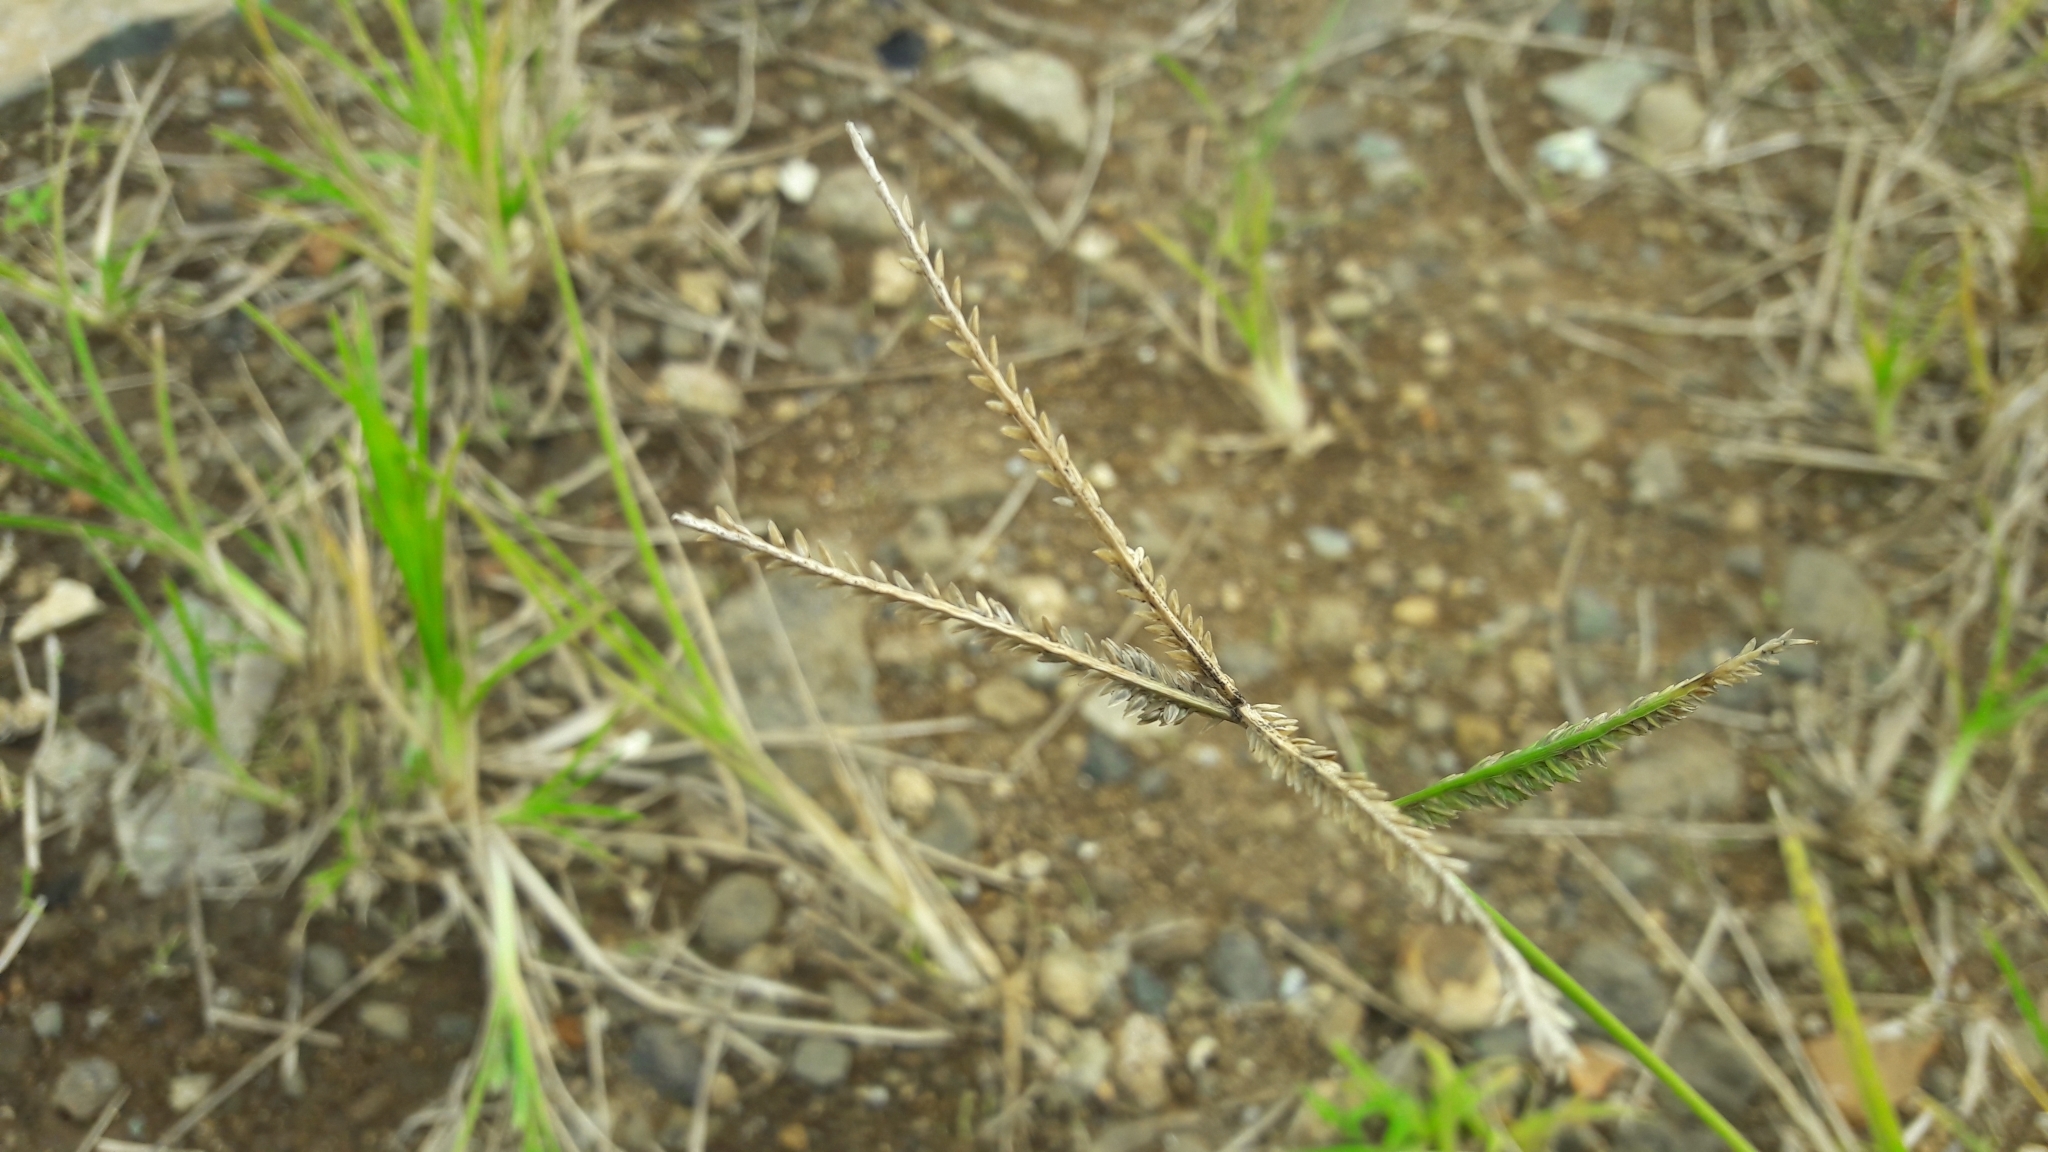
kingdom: Plantae
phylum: Tracheophyta
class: Liliopsida
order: Poales
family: Poaceae
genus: Eleusine
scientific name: Eleusine indica
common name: Yard-grass
